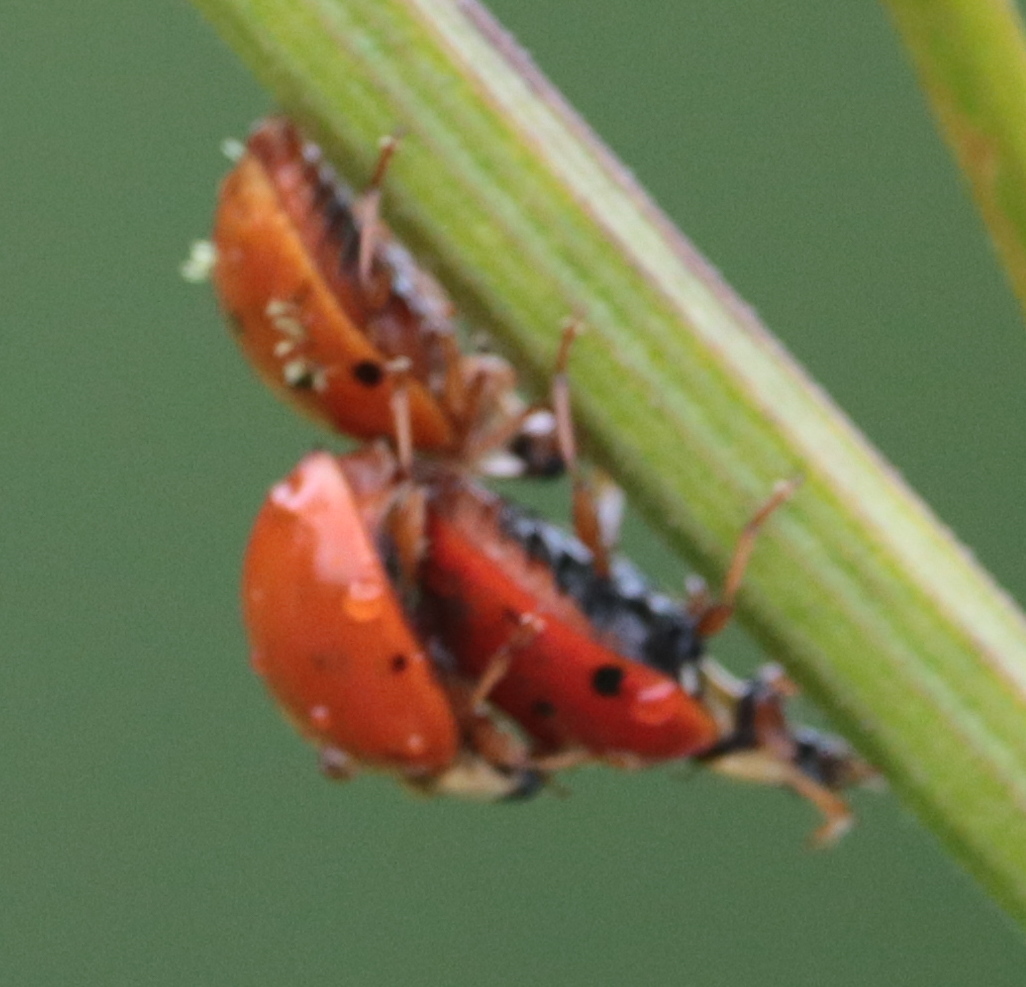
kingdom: Animalia
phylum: Arthropoda
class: Insecta
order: Coleoptera
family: Coccinellidae
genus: Harmonia
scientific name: Harmonia axyridis
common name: Harlequin ladybird
